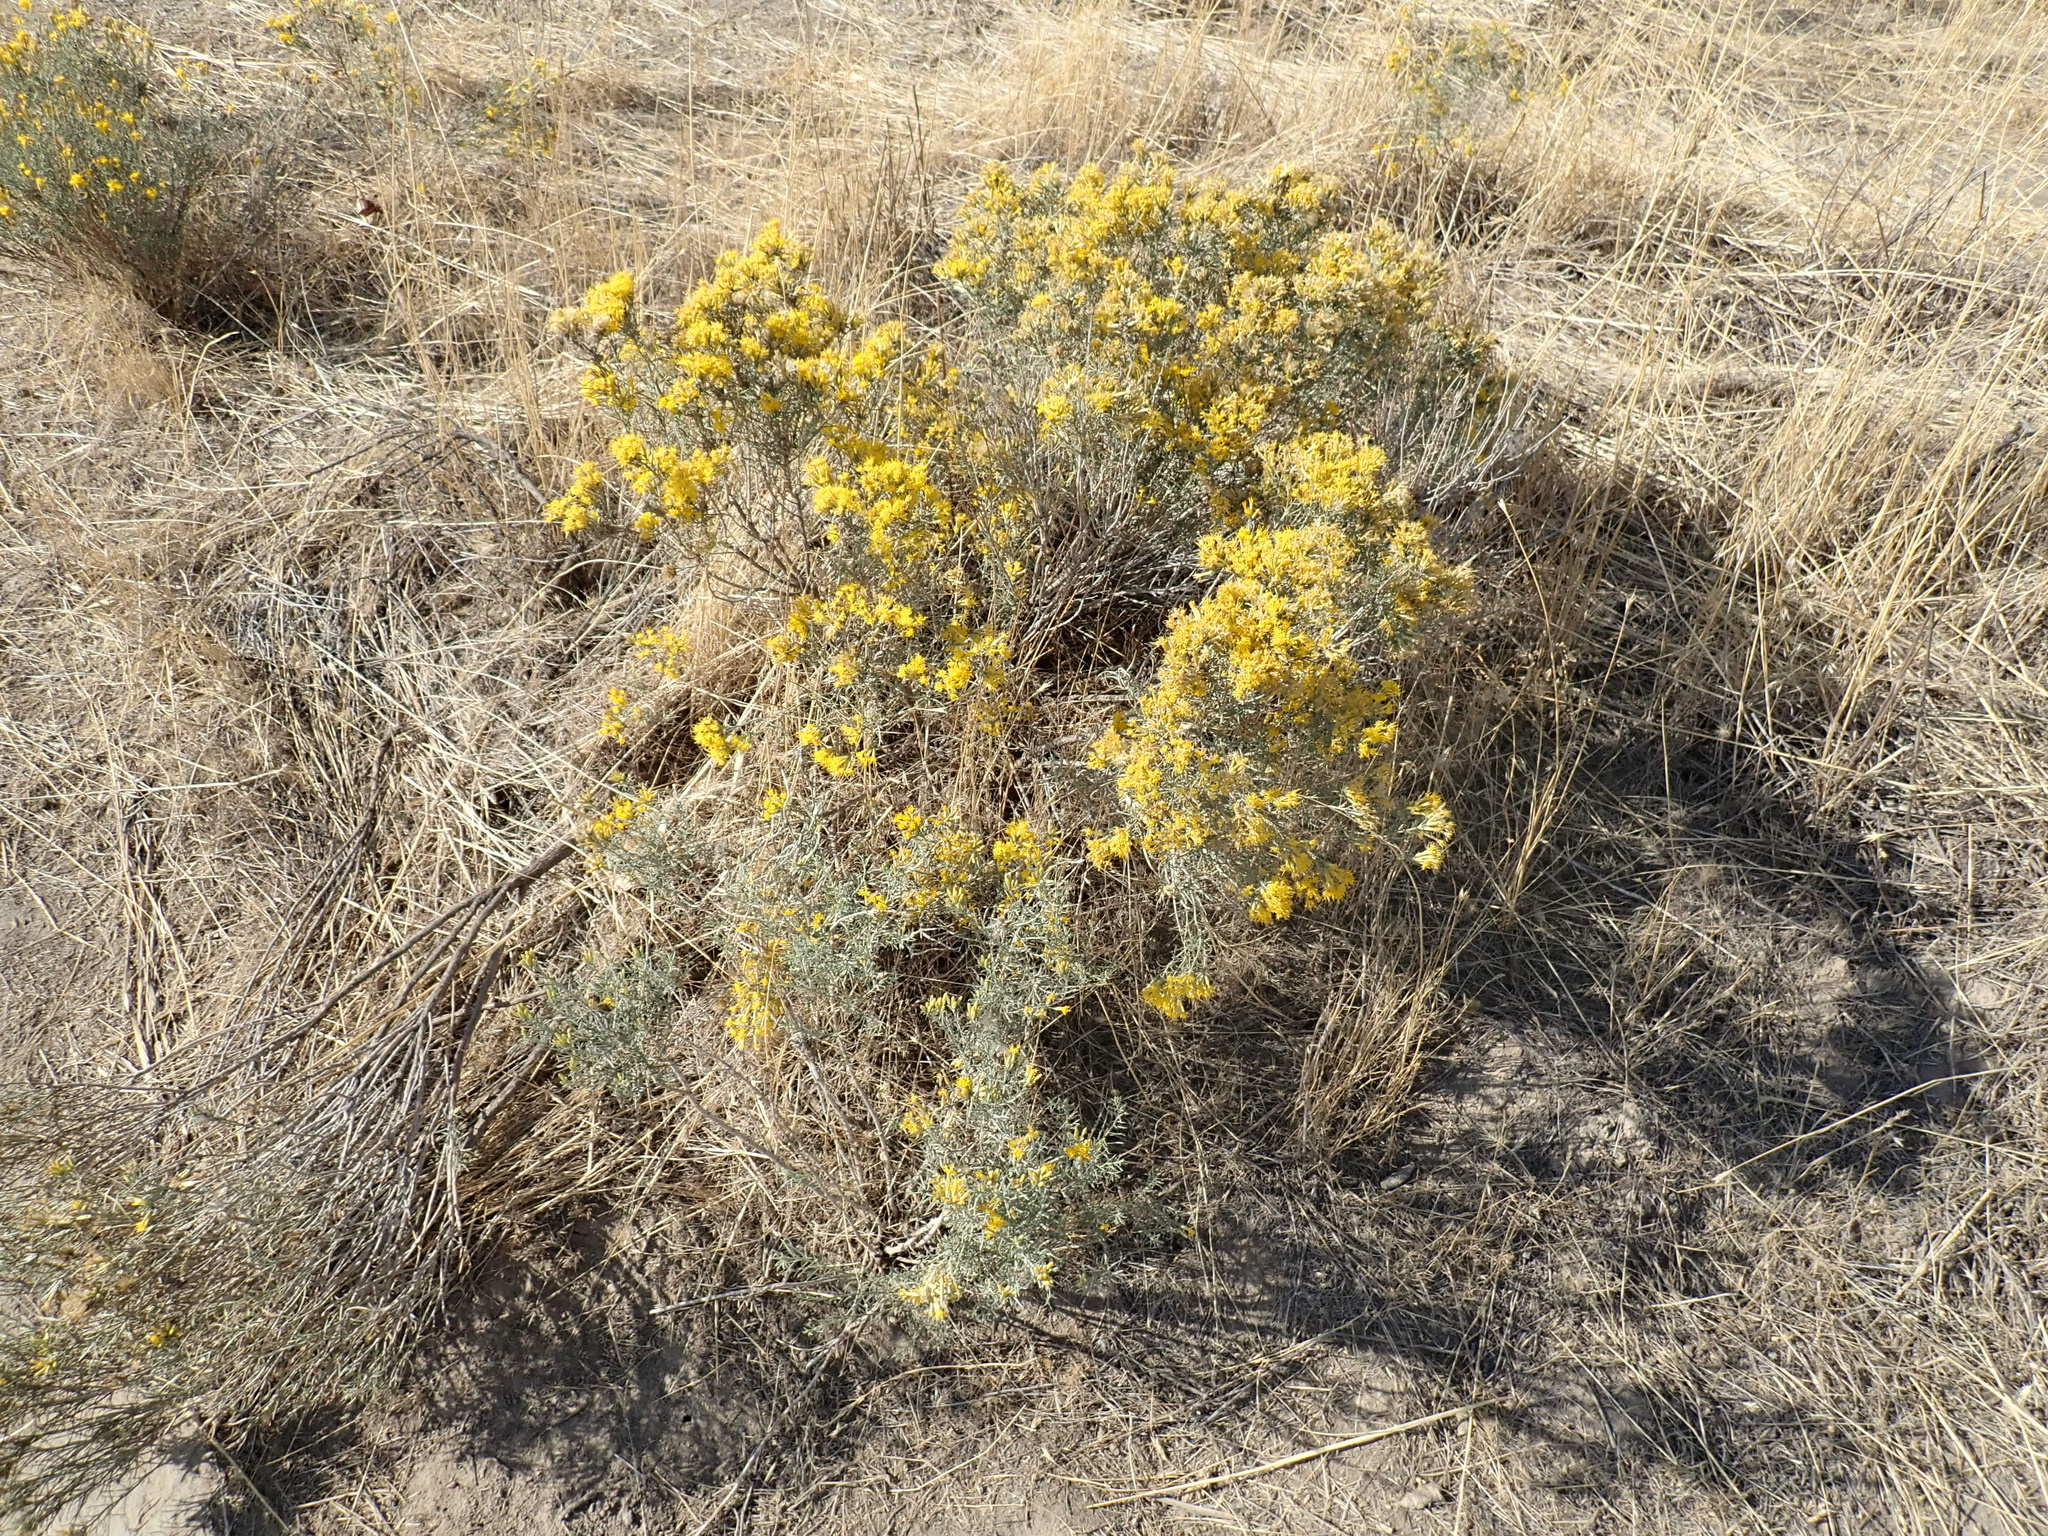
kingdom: Plantae
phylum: Tracheophyta
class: Magnoliopsida
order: Asterales
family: Asteraceae
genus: Ericameria
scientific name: Ericameria nauseosa
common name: Rubber rabbitbrush
